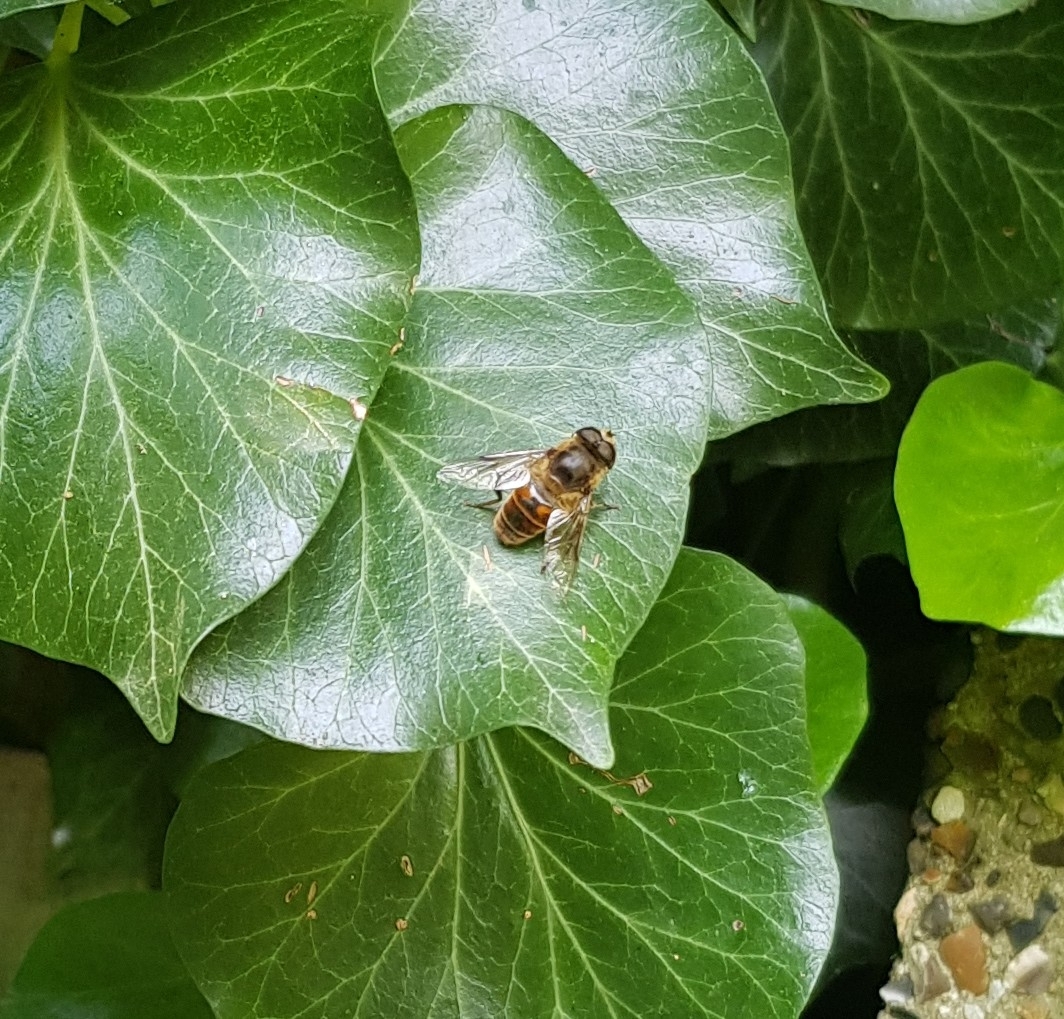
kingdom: Animalia
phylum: Arthropoda
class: Insecta
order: Diptera
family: Syrphidae
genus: Eristalis
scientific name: Eristalis tenax
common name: Drone fly
